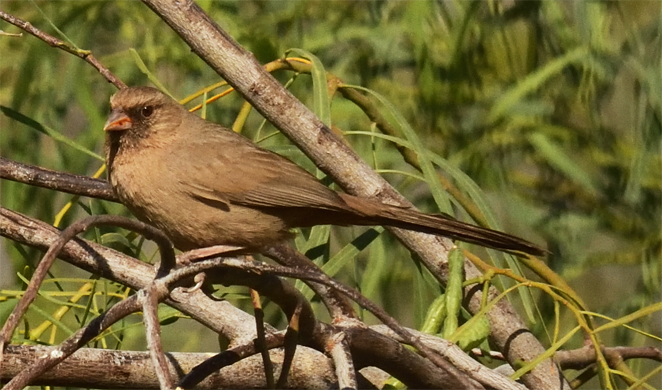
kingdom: Animalia
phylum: Chordata
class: Aves
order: Passeriformes
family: Passerellidae
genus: Melozone
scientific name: Melozone aberti
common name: Abert's towhee
